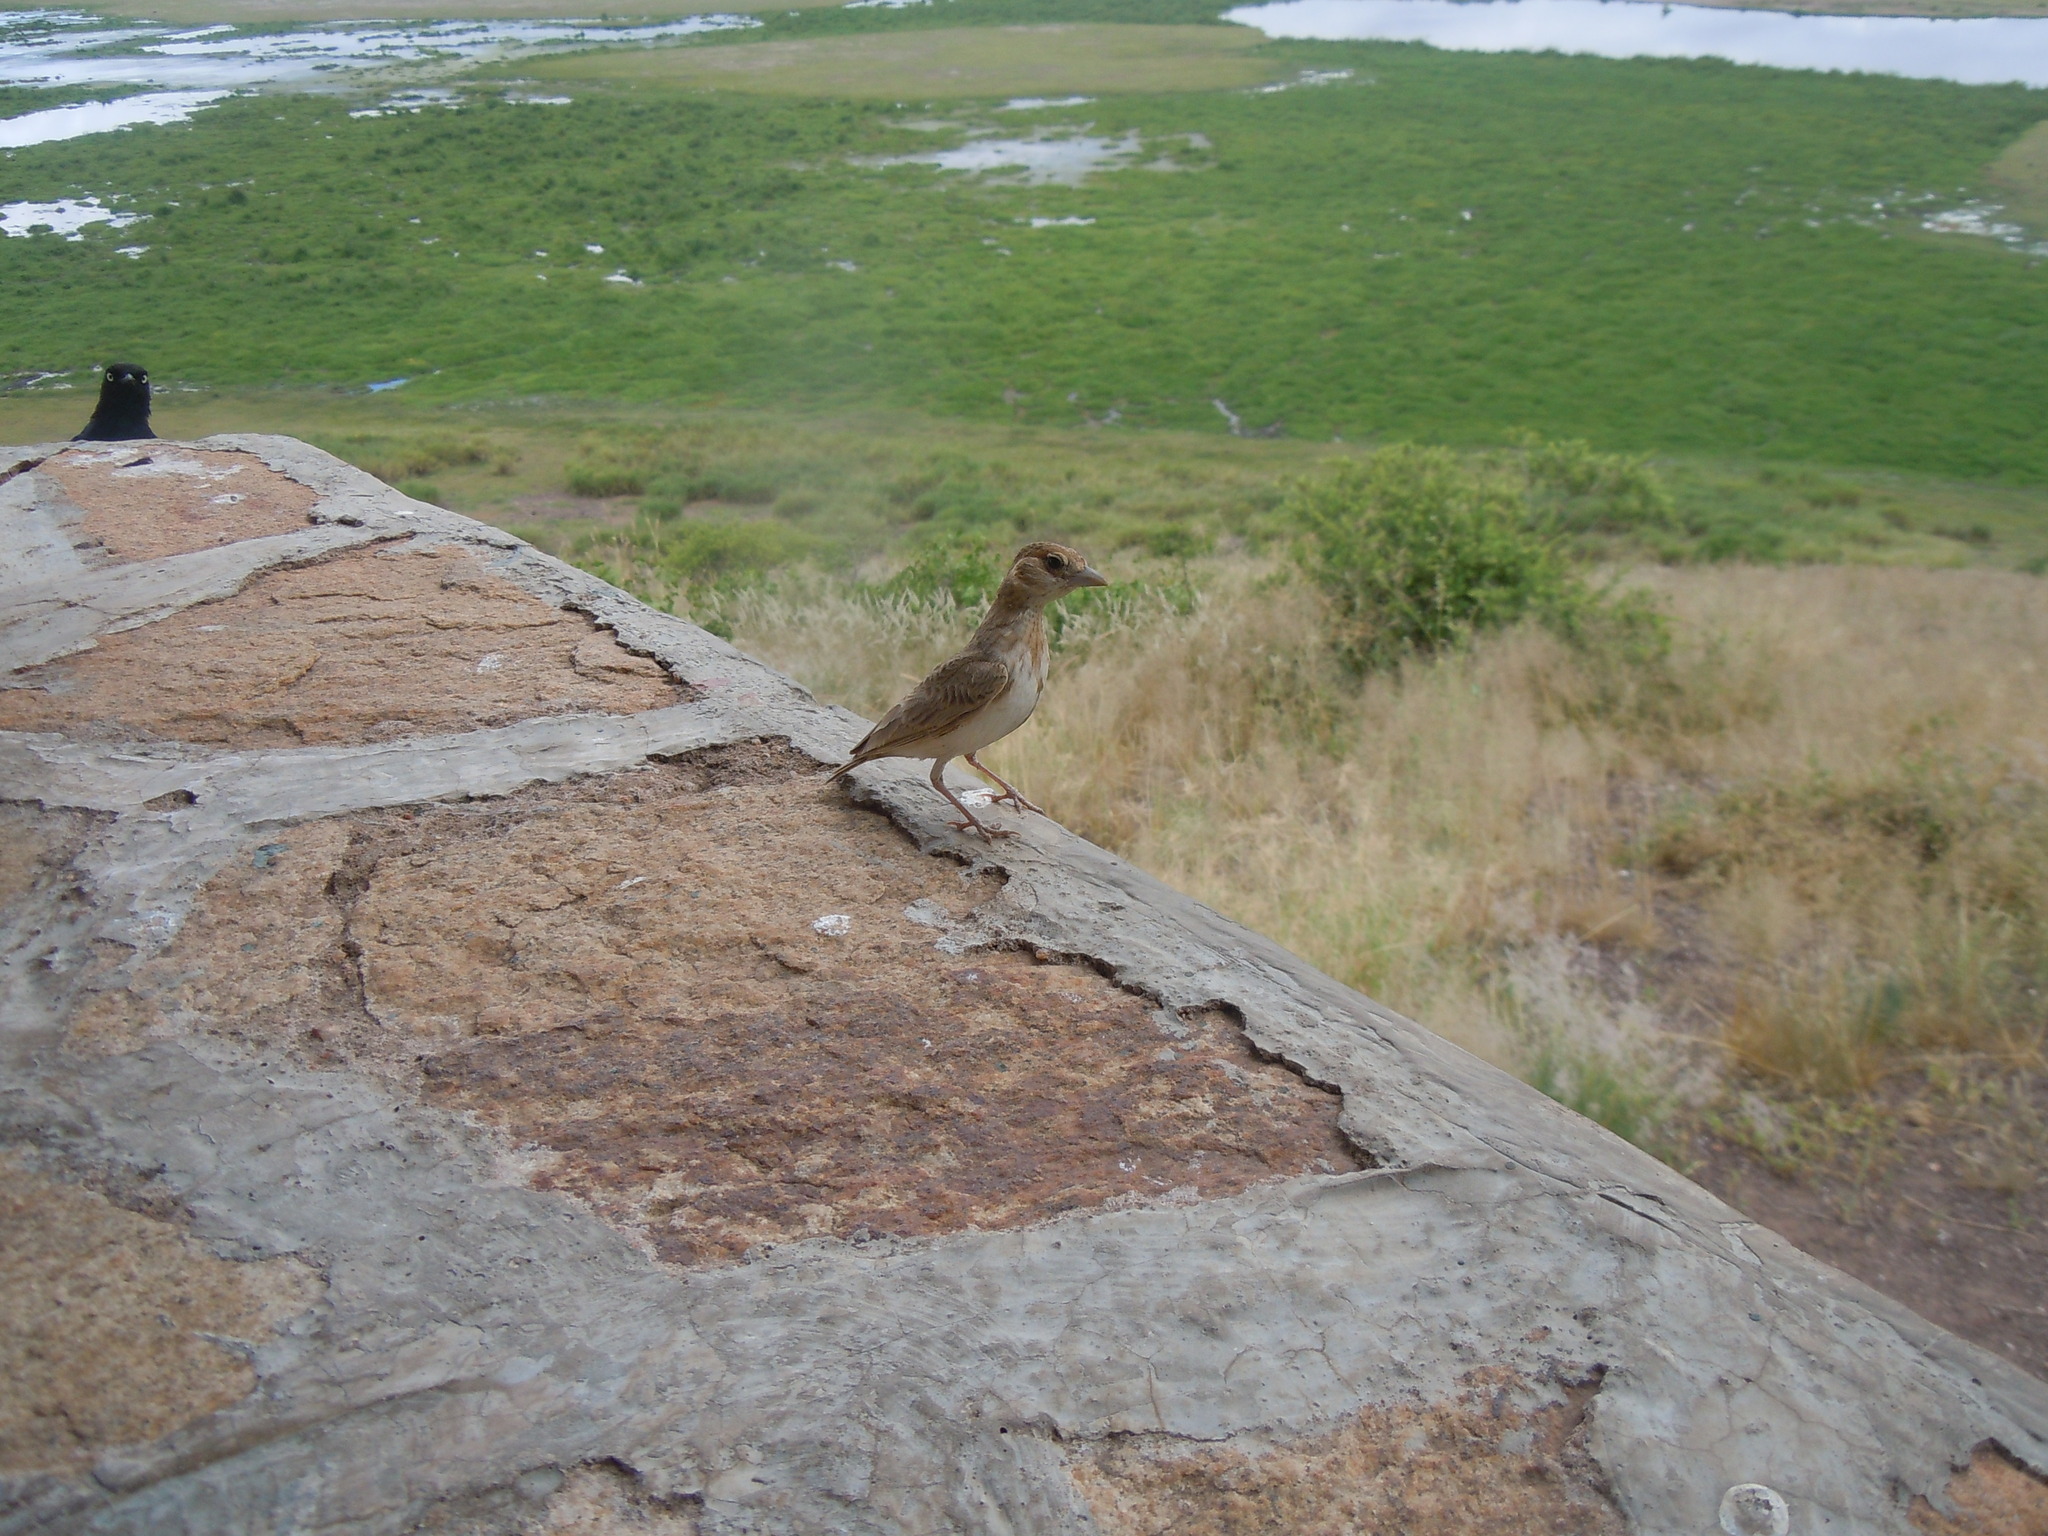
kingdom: Animalia
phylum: Chordata
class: Aves
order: Passeriformes
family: Alaudidae
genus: Eremopterix
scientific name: Eremopterix leucopareia
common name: Fischer's sparrow-lark
